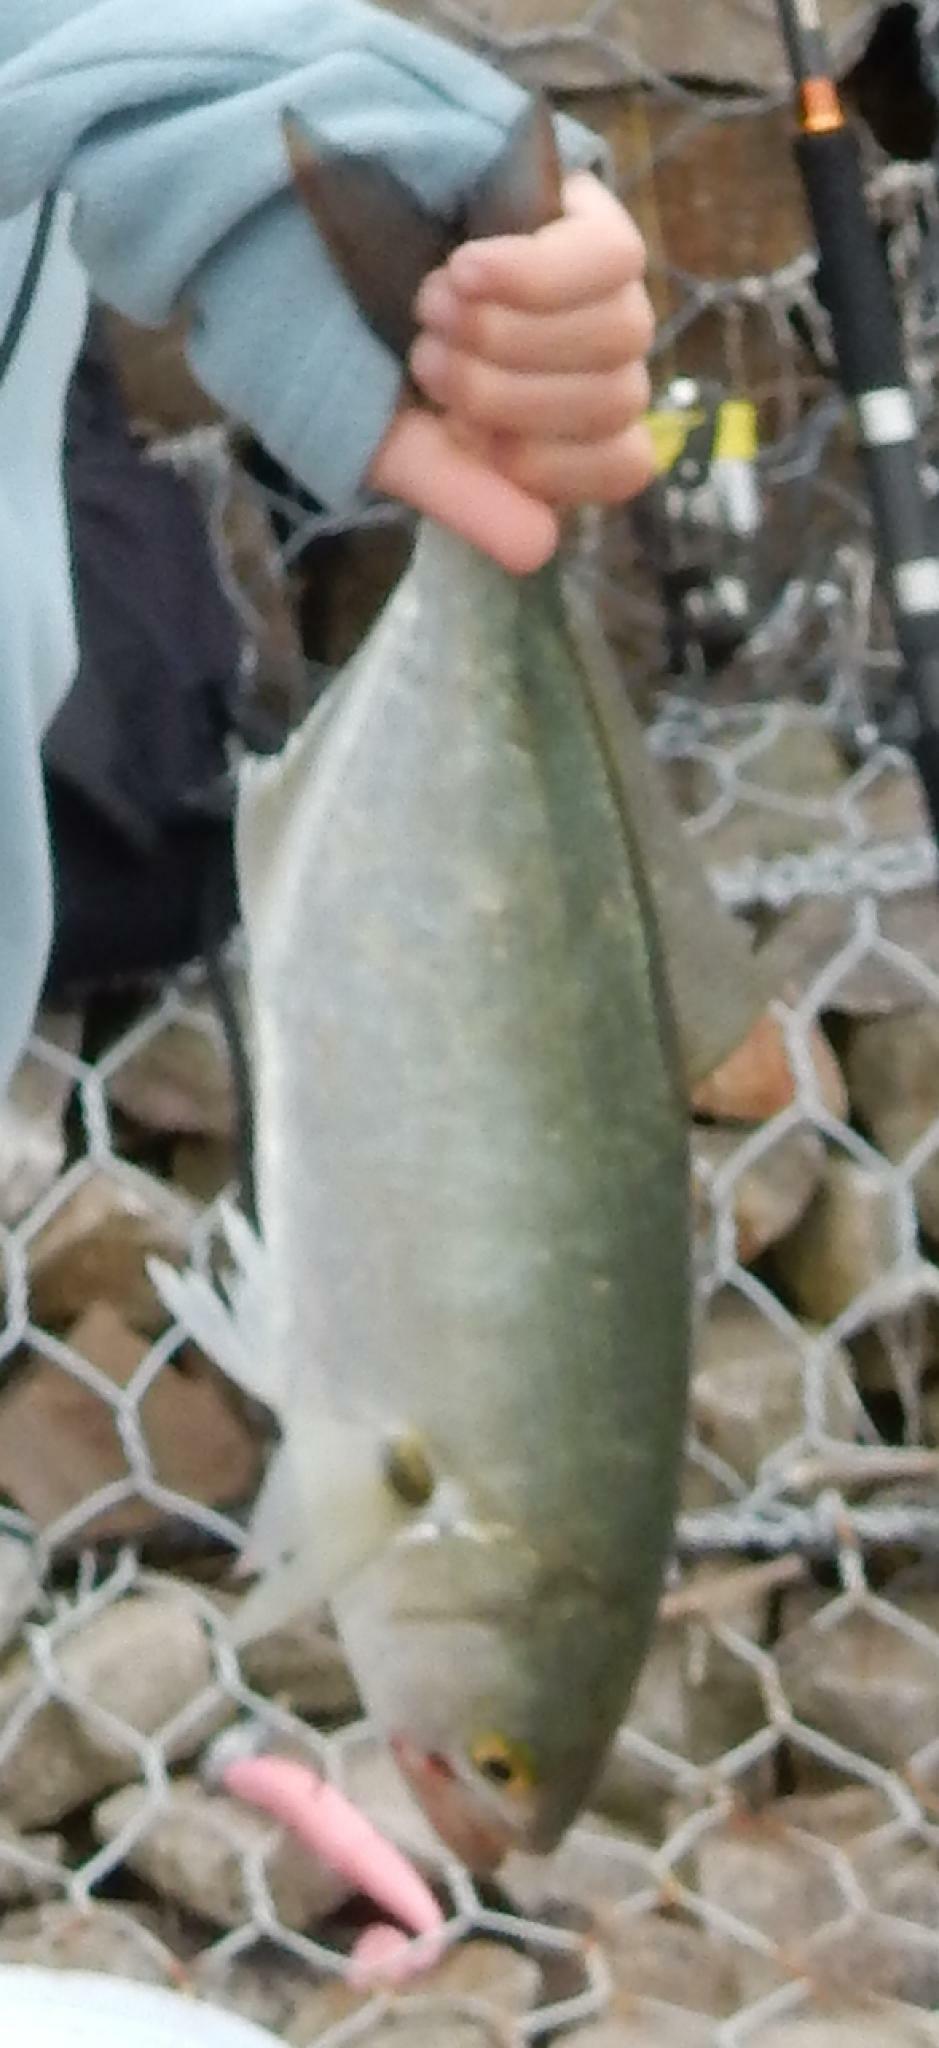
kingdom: Animalia
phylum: Chordata
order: Perciformes
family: Pomatomidae
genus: Pomatomus
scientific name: Pomatomus saltatrix
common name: Bluefish
